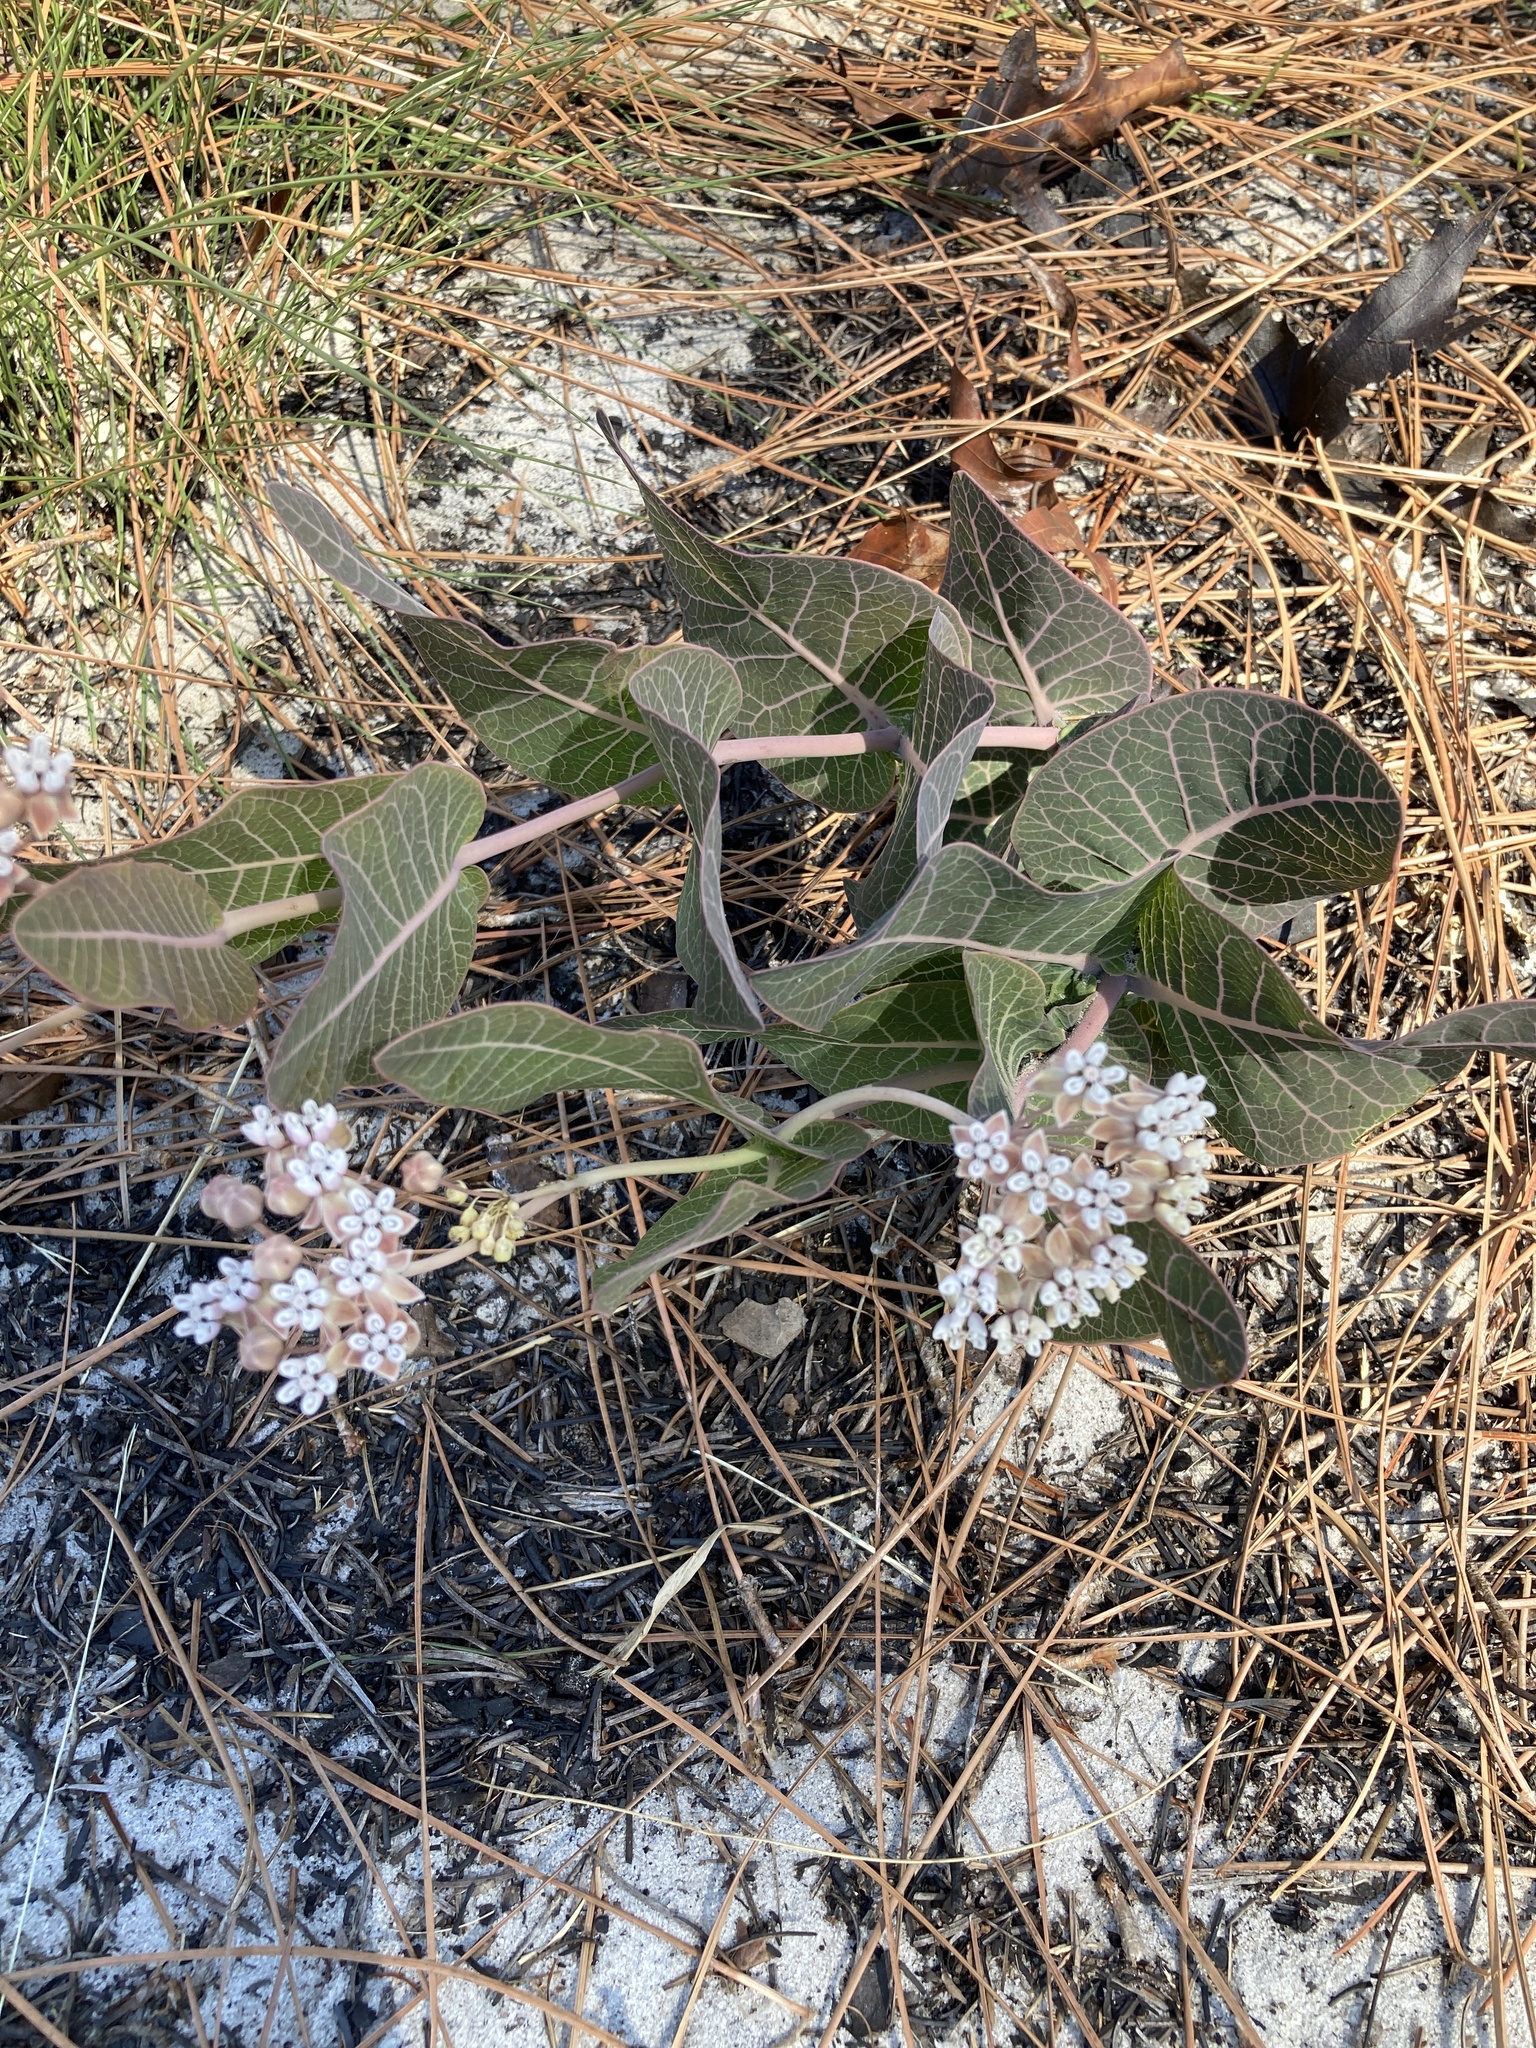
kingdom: Plantae
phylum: Tracheophyta
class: Magnoliopsida
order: Gentianales
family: Apocynaceae
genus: Asclepias
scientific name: Asclepias humistrata
